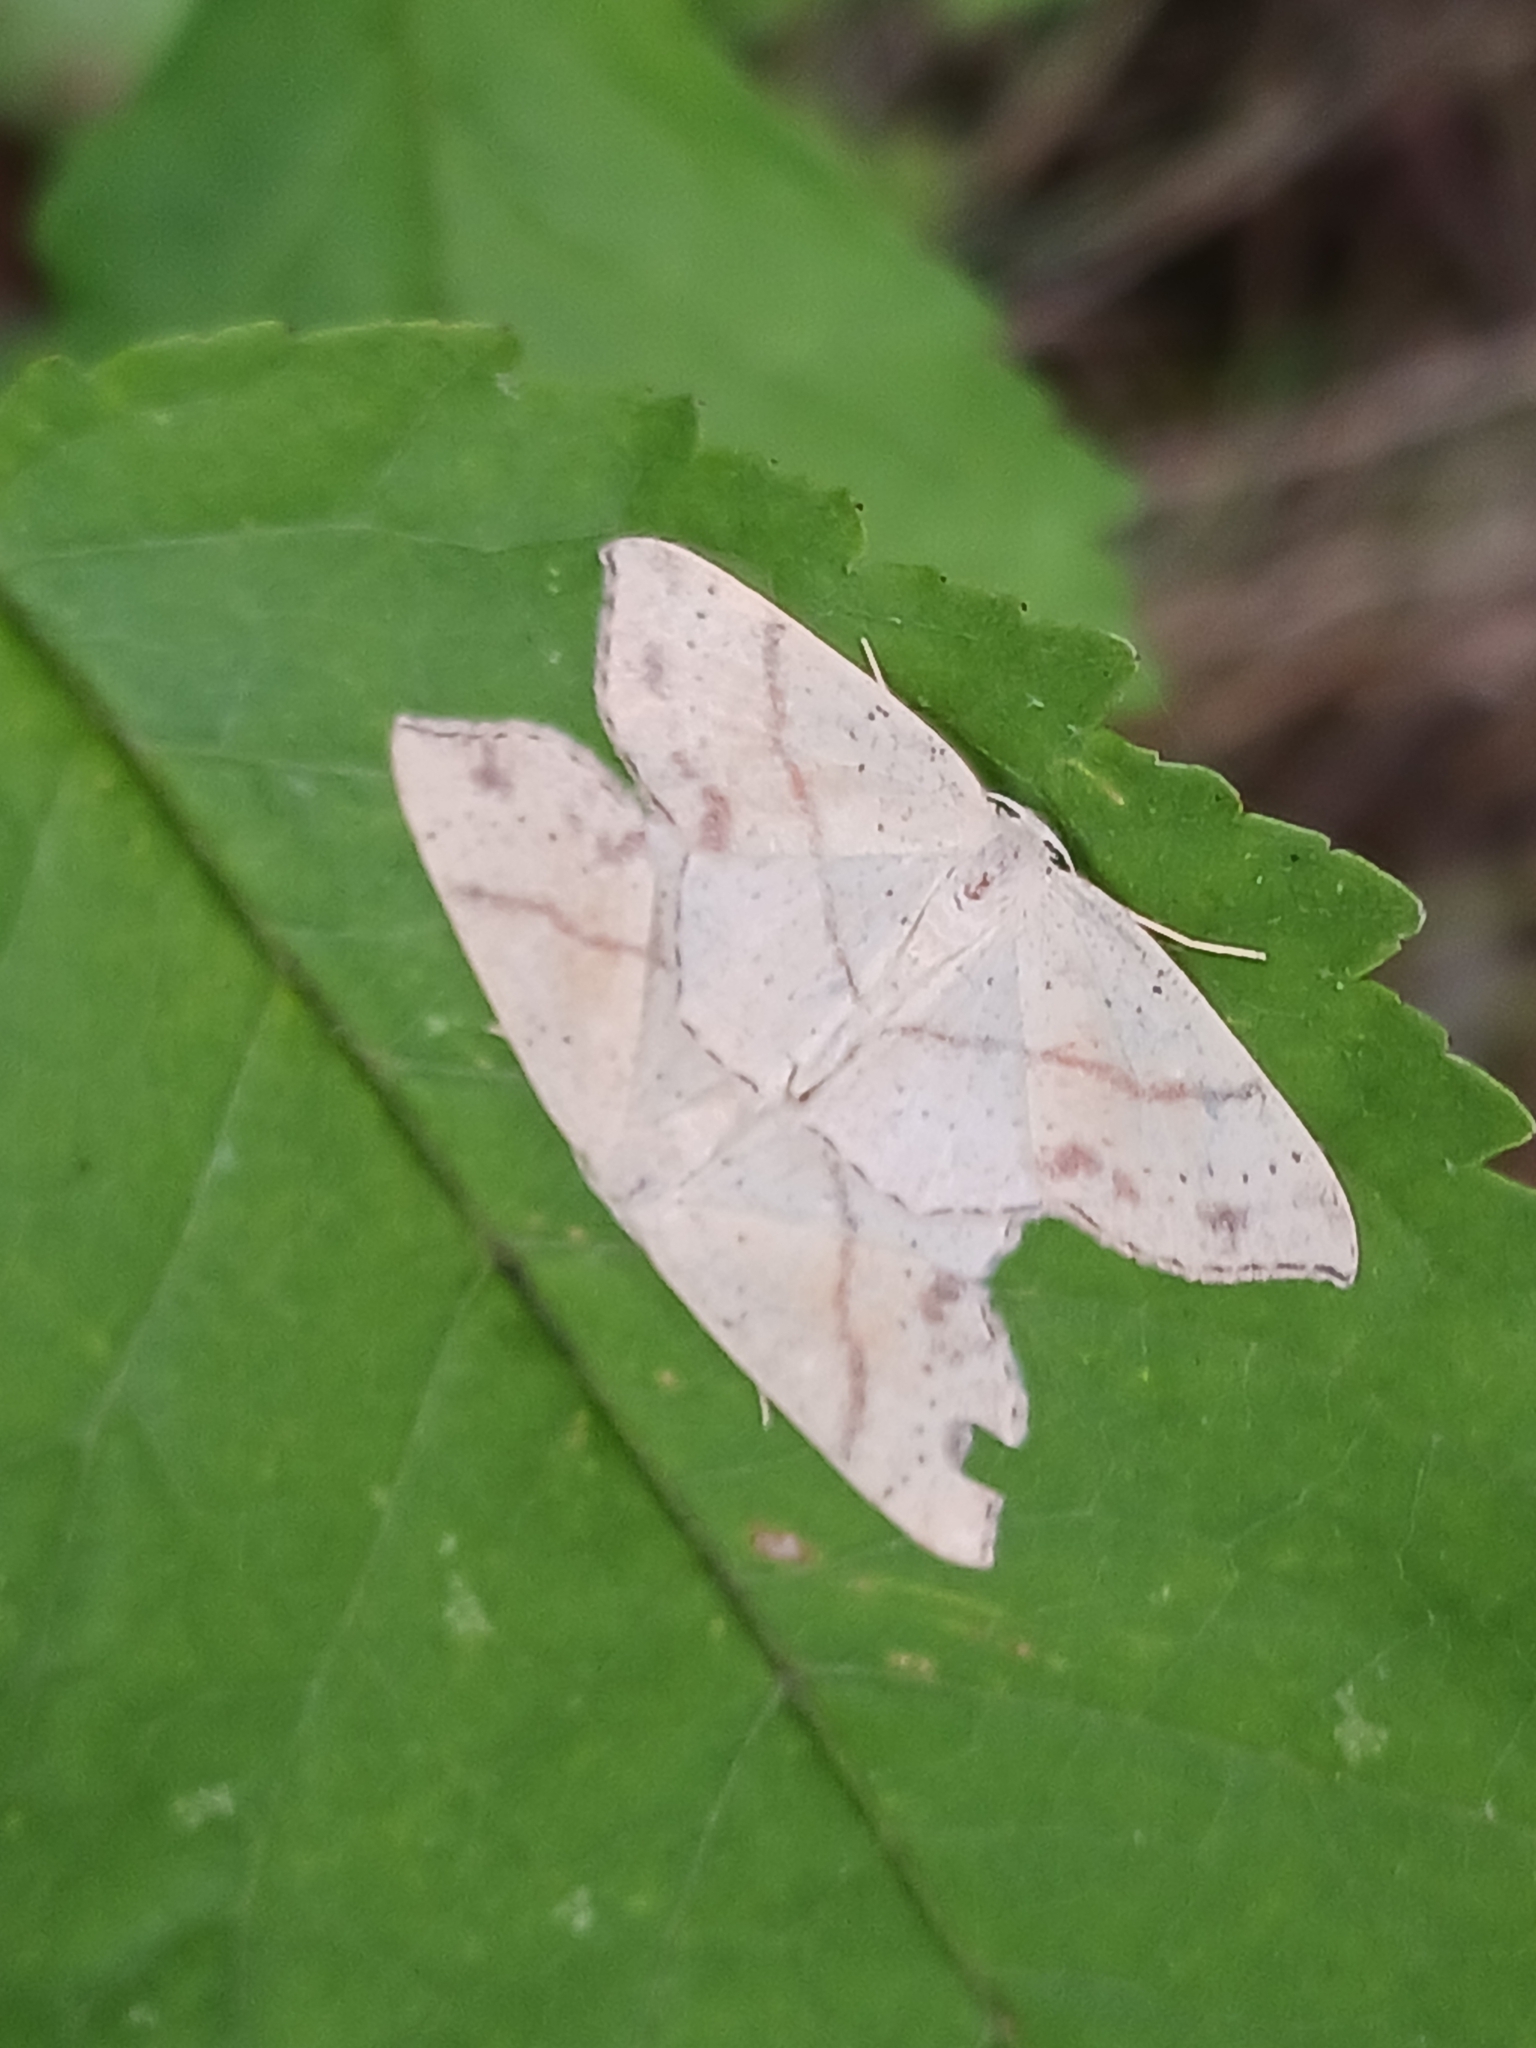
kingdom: Animalia
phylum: Arthropoda
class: Insecta
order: Lepidoptera
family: Geometridae
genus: Cyclophora
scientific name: Cyclophora punctaria
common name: Maiden's blush
